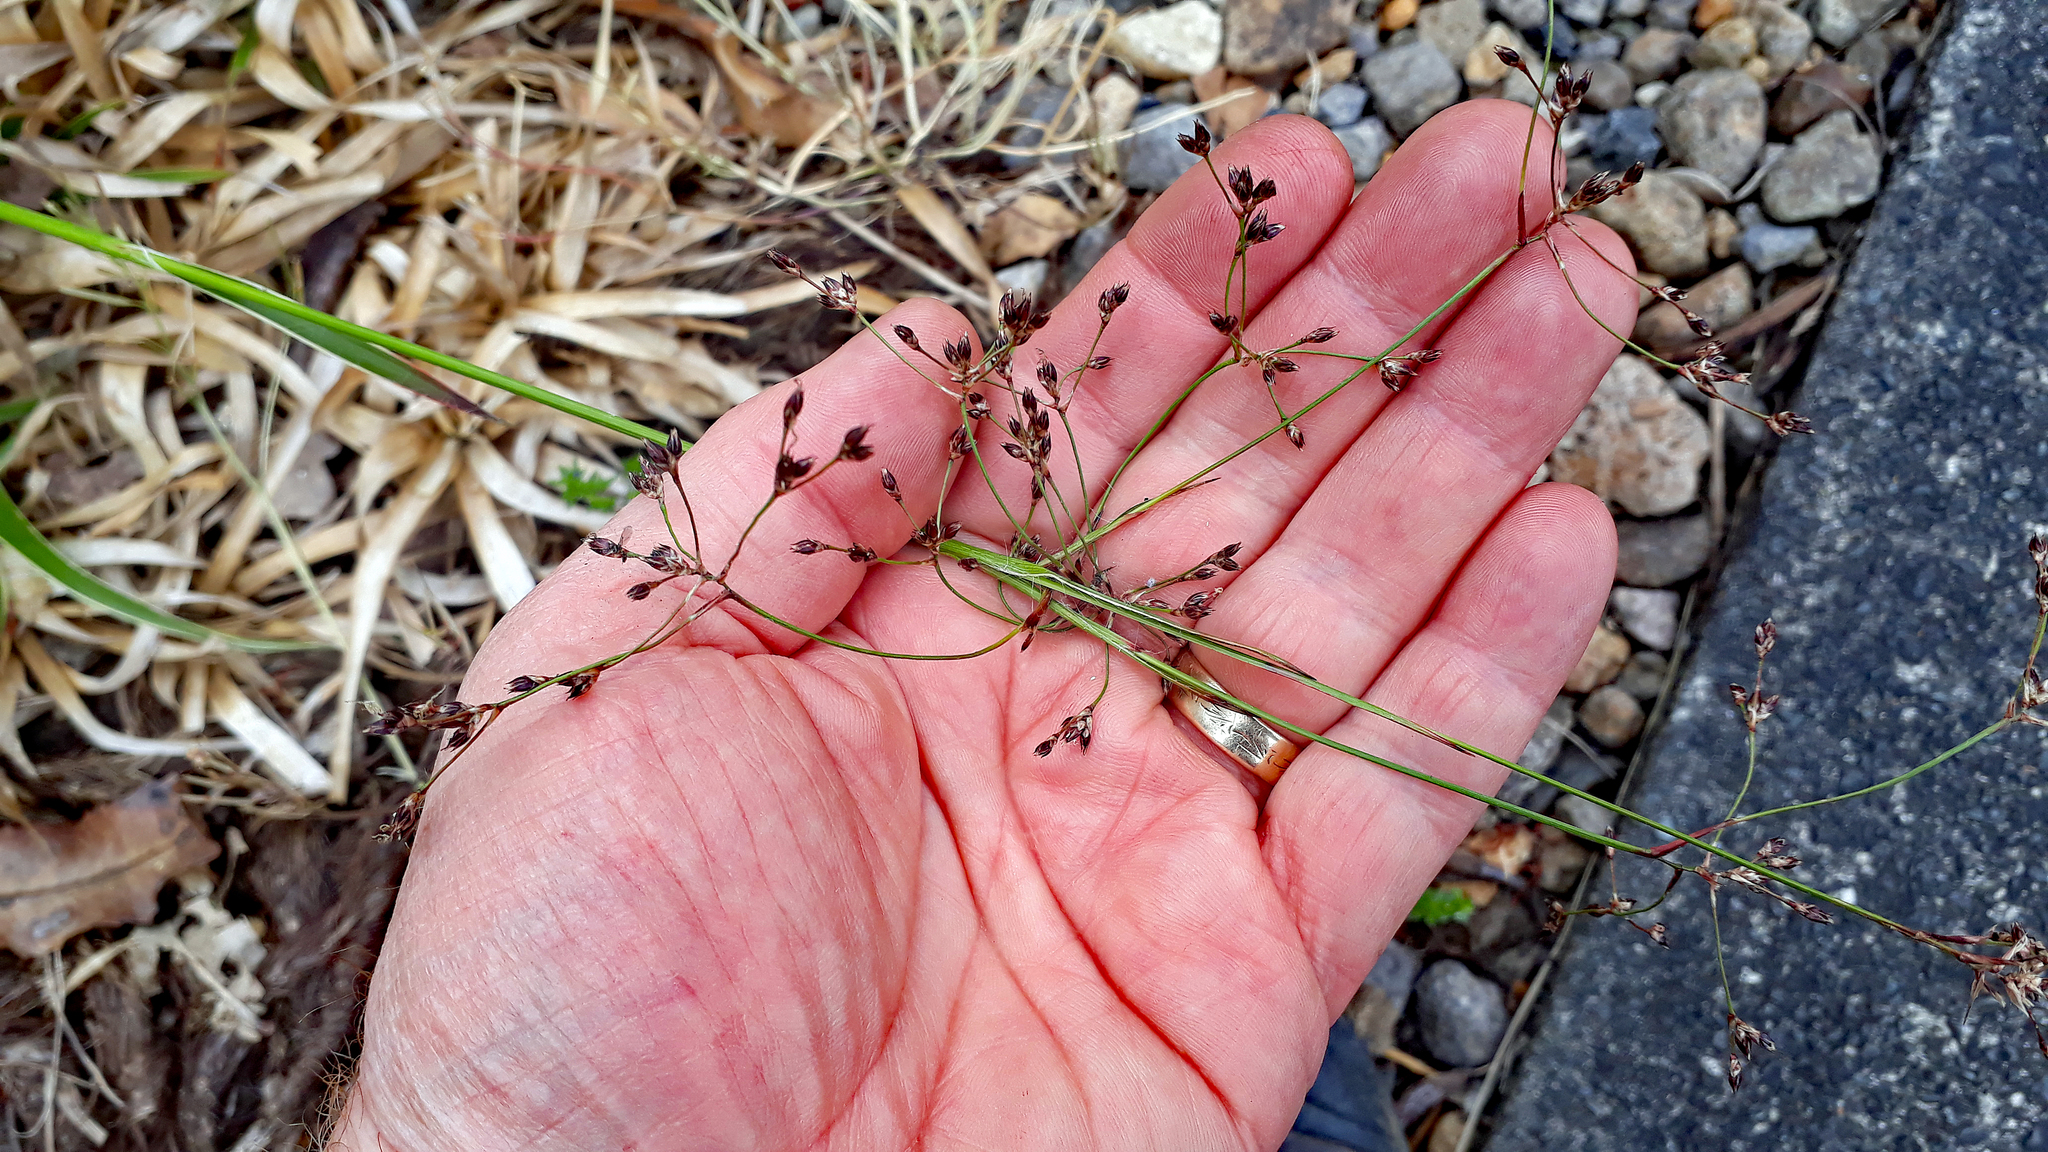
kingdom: Plantae
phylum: Tracheophyta
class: Liliopsida
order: Poales
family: Juncaceae
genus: Luzula
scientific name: Luzula sylvatica
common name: Great wood-rush
